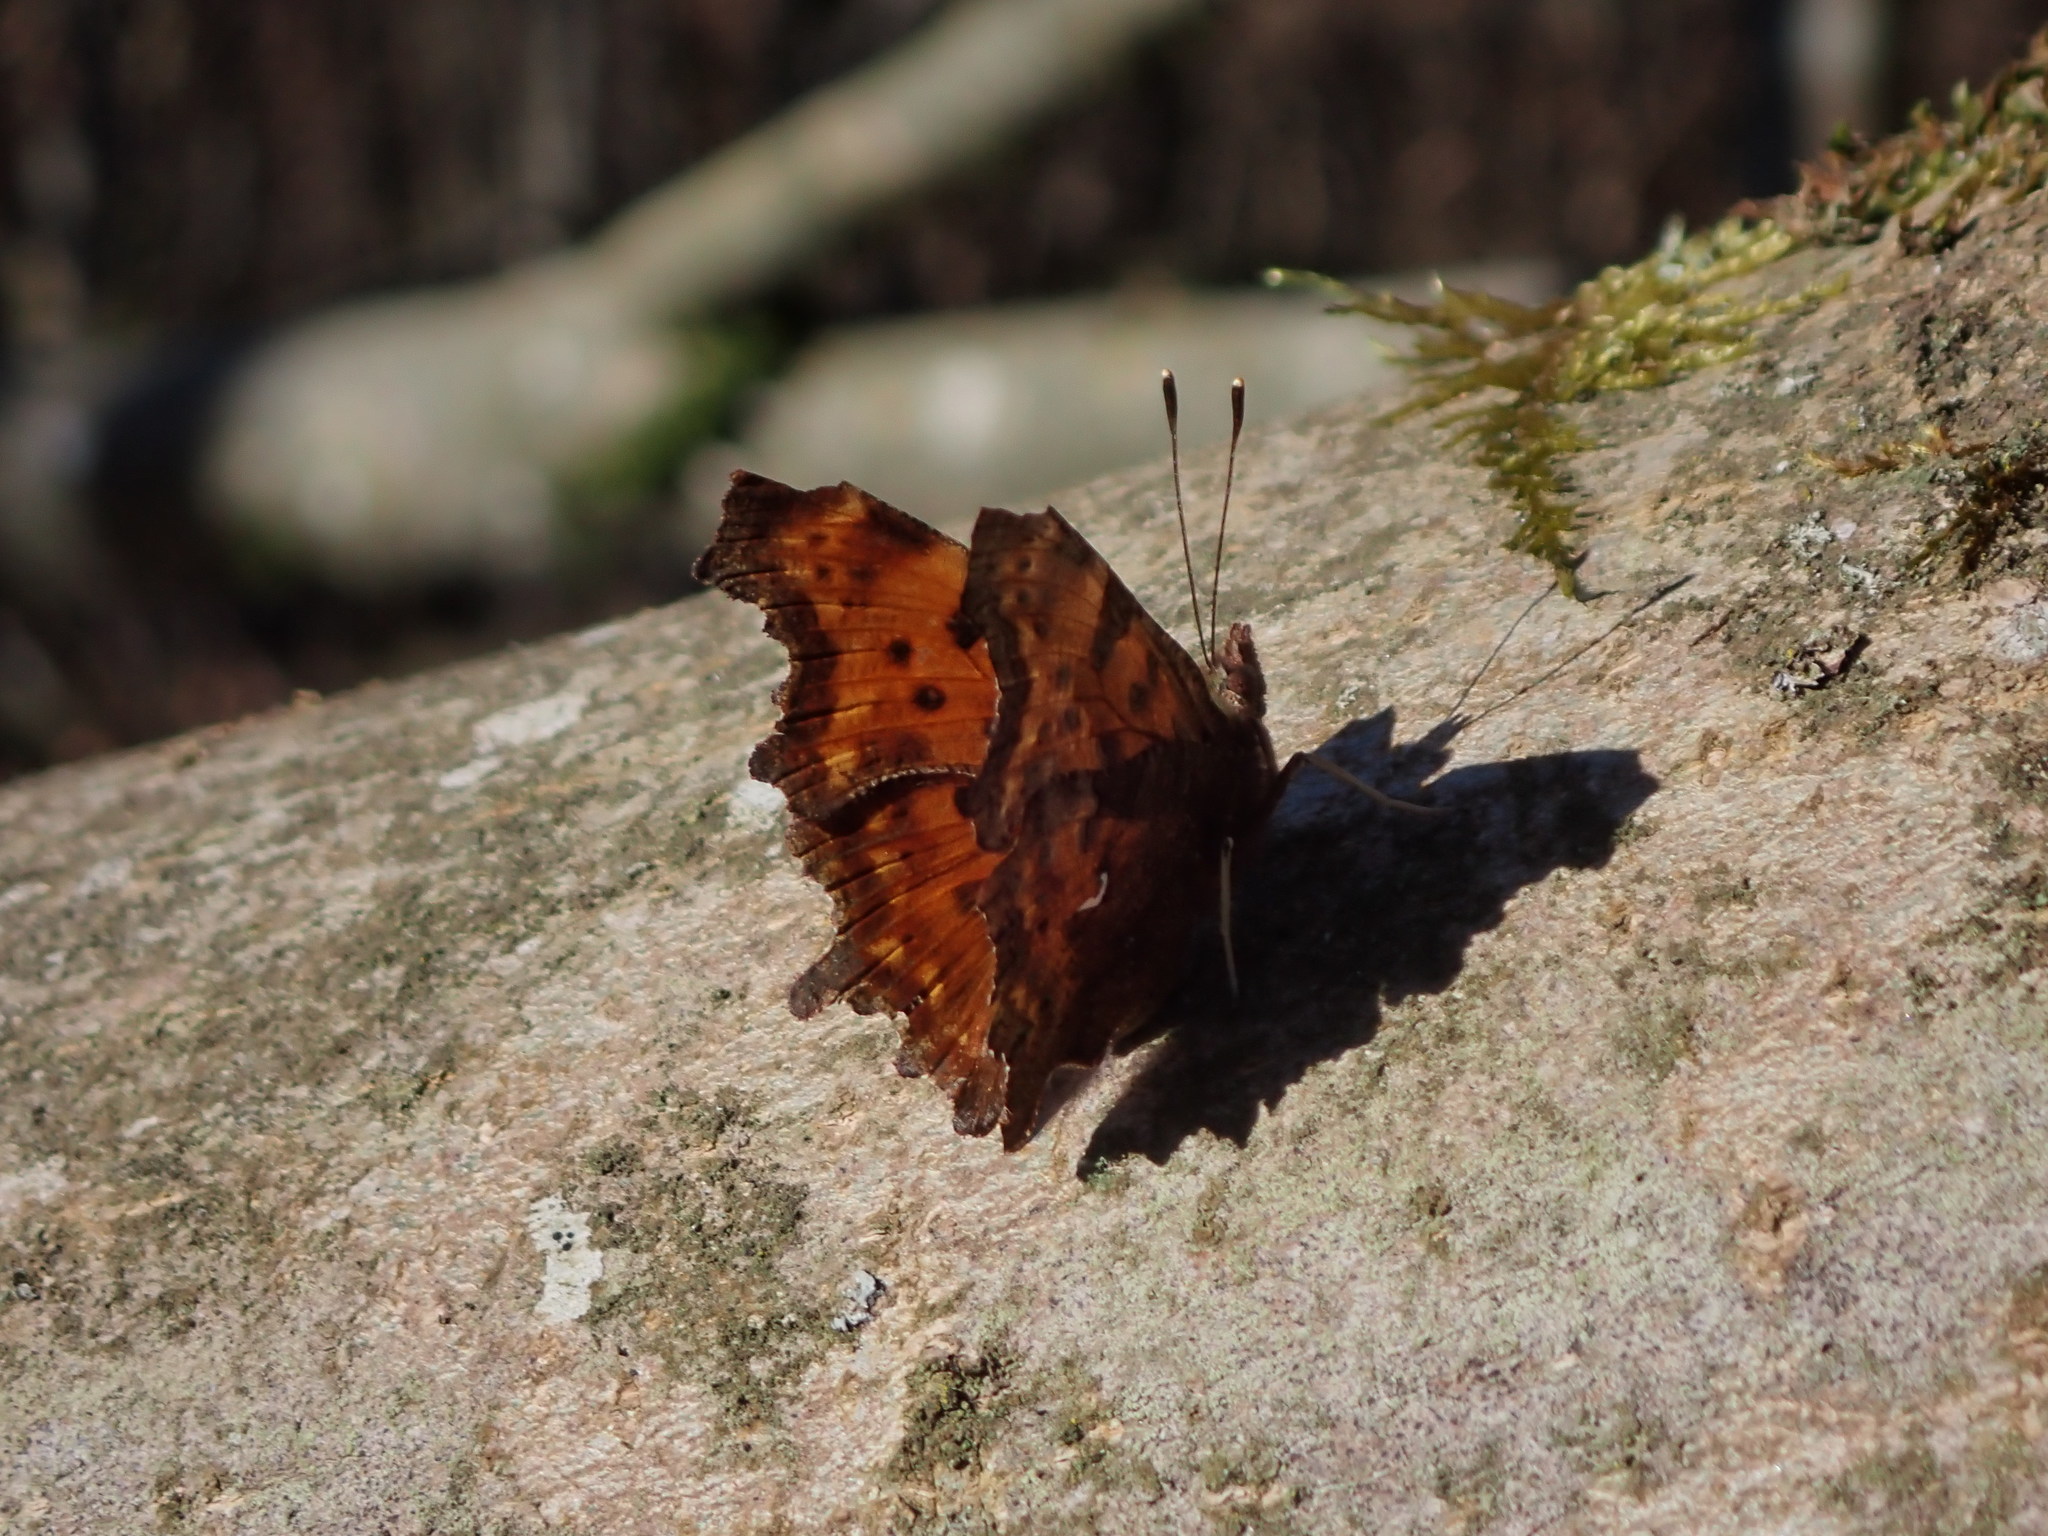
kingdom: Animalia
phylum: Arthropoda
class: Insecta
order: Lepidoptera
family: Nymphalidae
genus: Polygonia
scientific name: Polygonia c-album
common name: Comma
